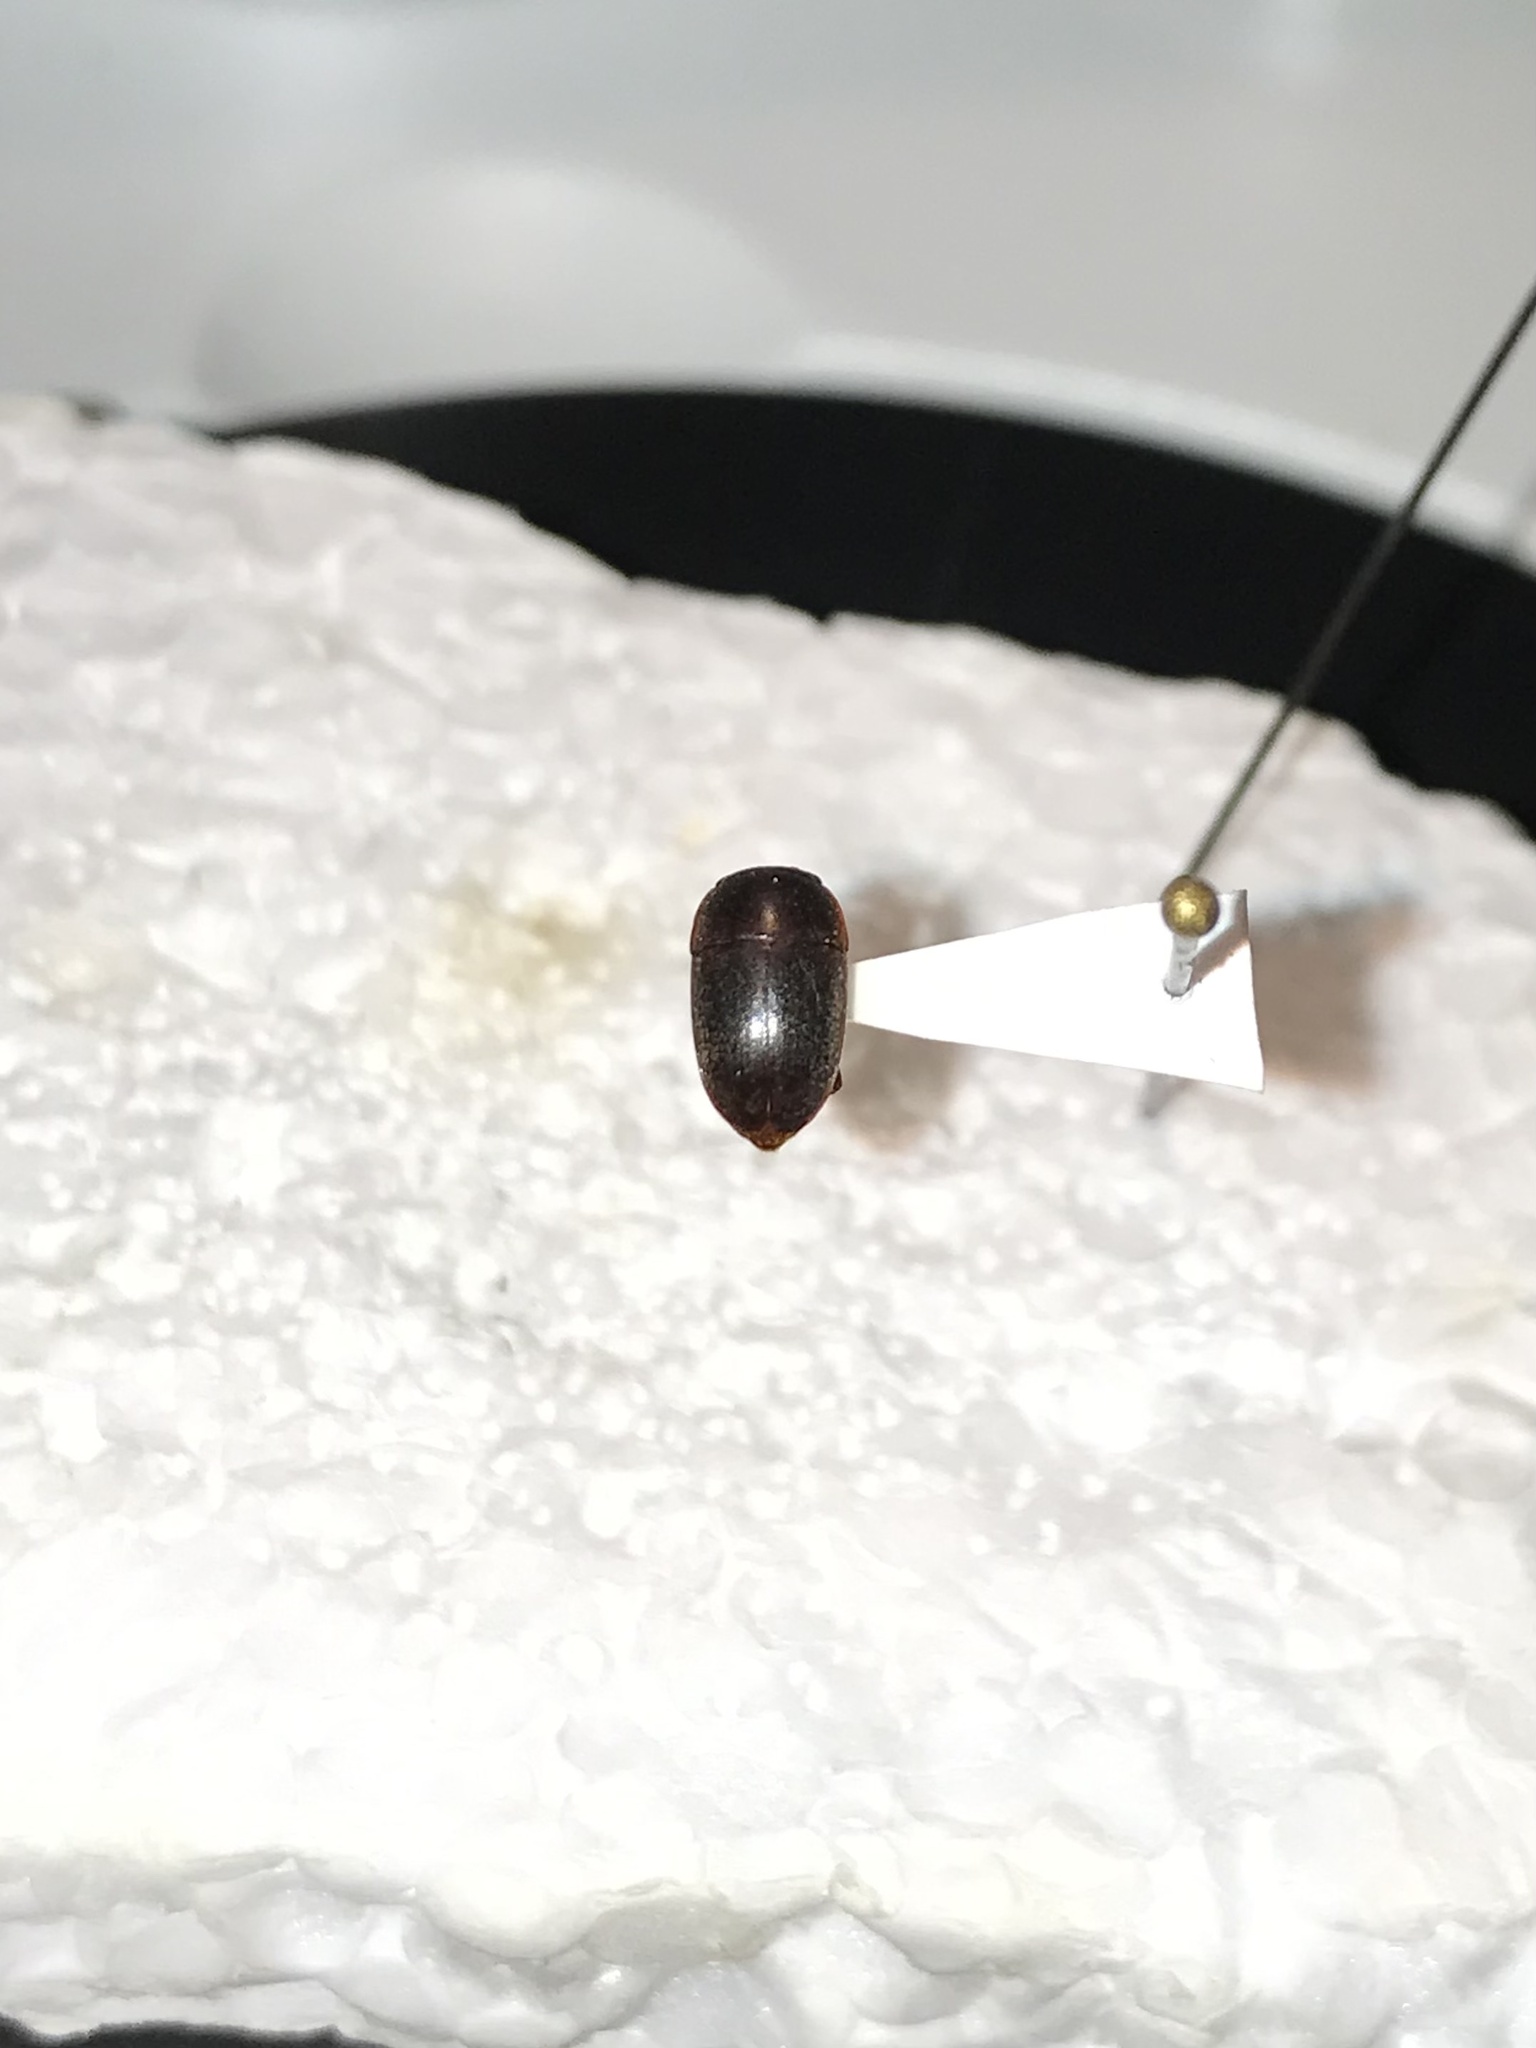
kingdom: Animalia
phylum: Arthropoda
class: Insecta
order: Coleoptera
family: Nitidulidae
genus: Cryptarcha
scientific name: Cryptarcha ampla
